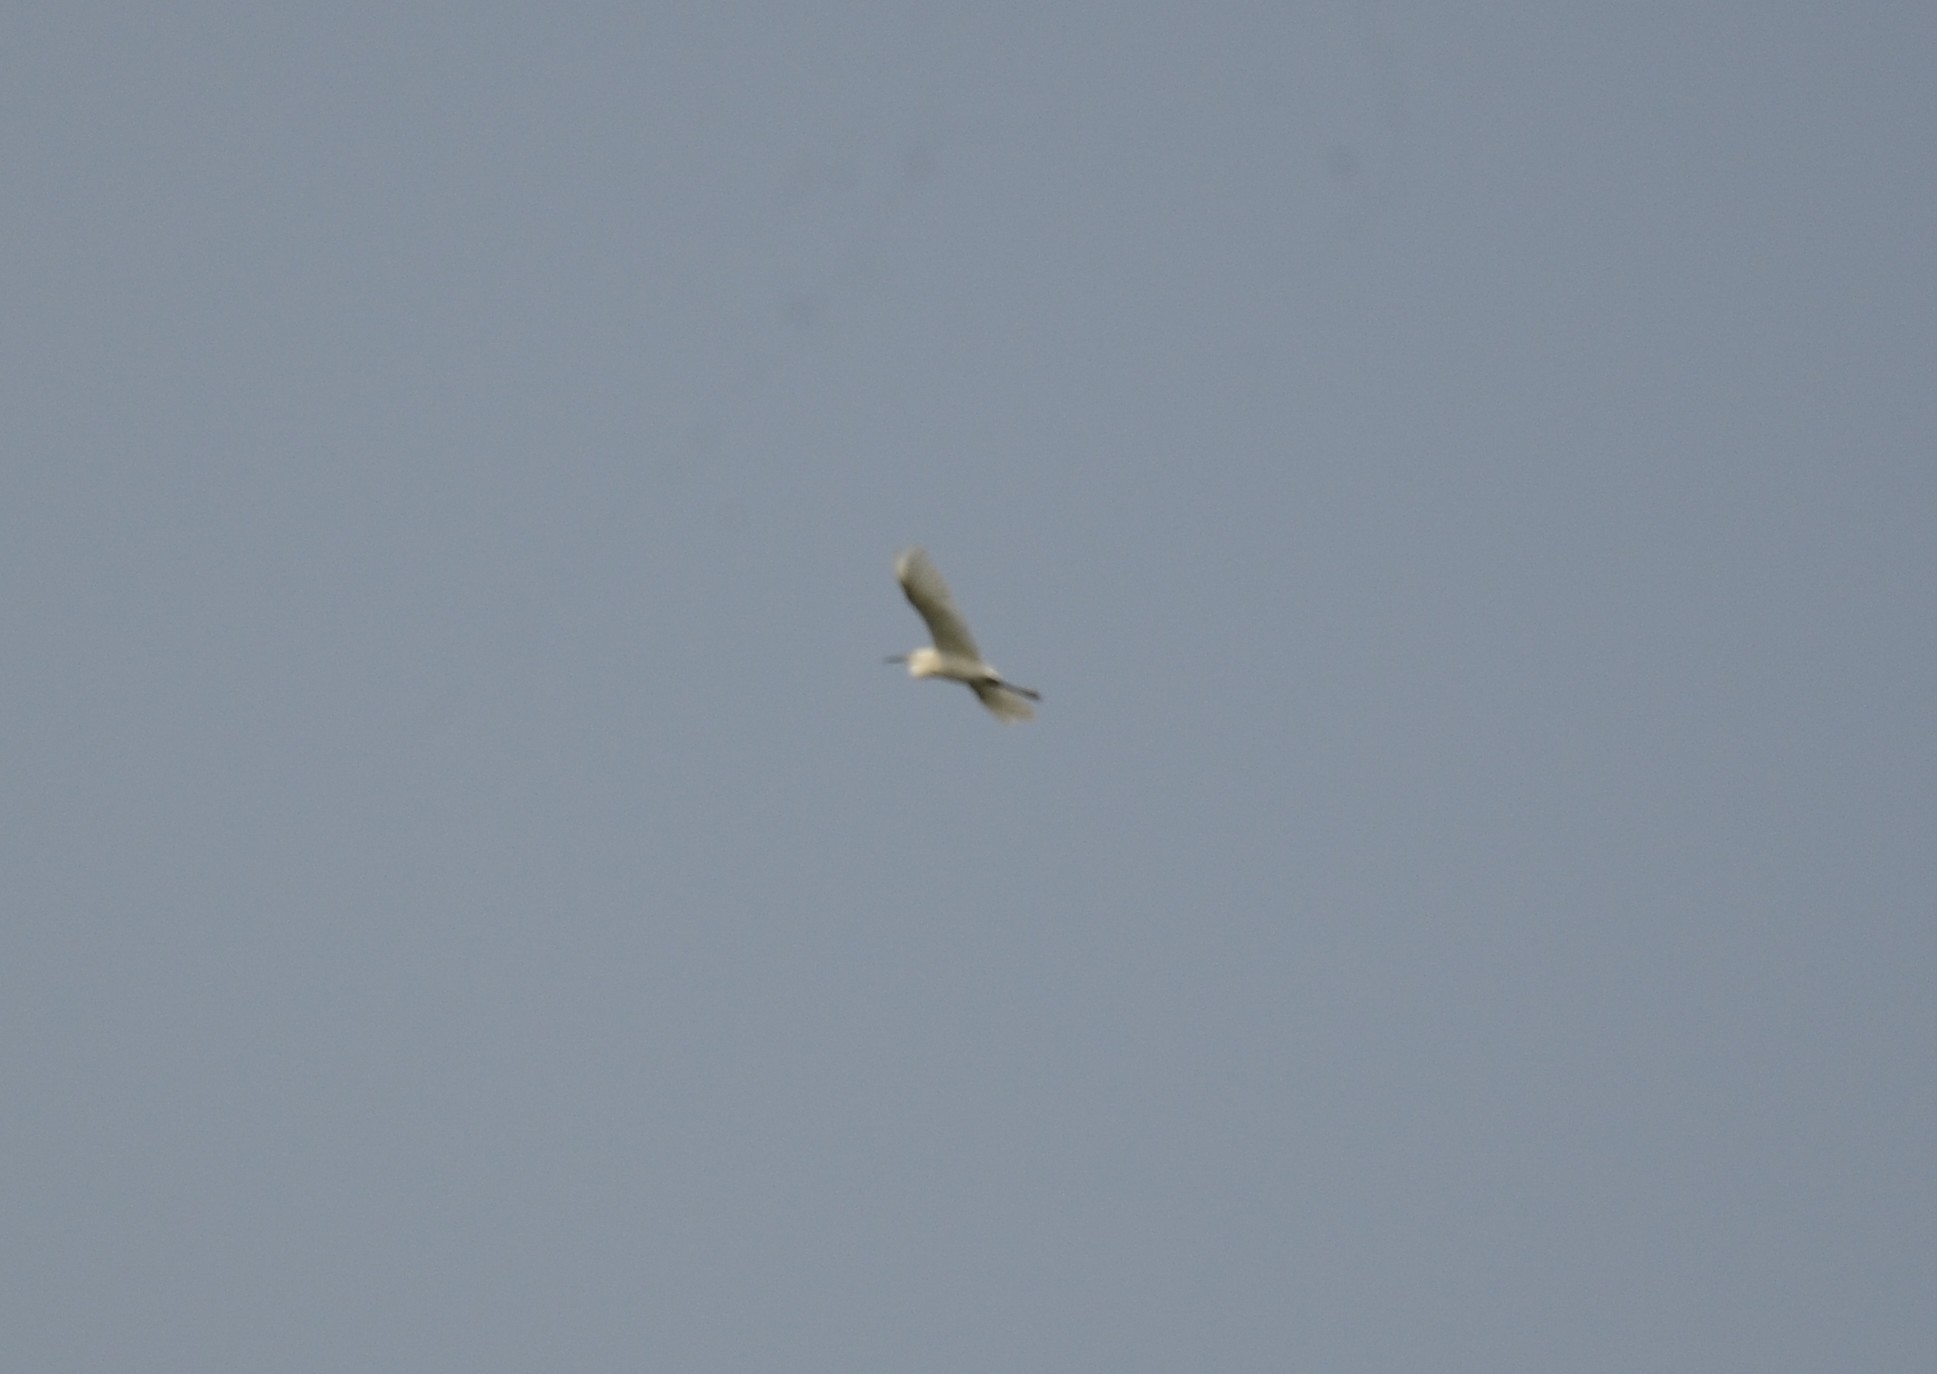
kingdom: Animalia
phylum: Chordata
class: Aves
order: Pelecaniformes
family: Ardeidae
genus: Egretta
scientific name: Egretta garzetta
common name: Little egret
